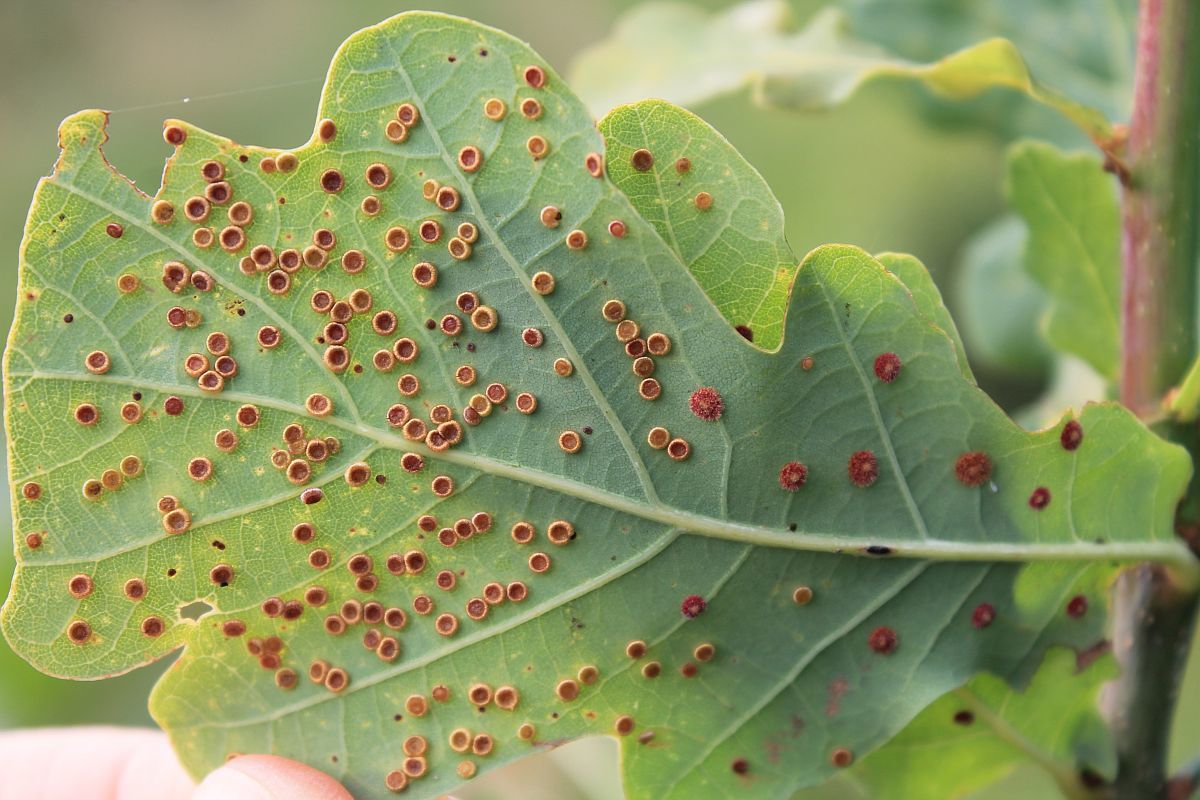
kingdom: Animalia
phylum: Arthropoda
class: Insecta
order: Hymenoptera
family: Cynipidae
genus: Neuroterus
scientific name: Neuroterus numismalis
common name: Silk-button spangle gall
